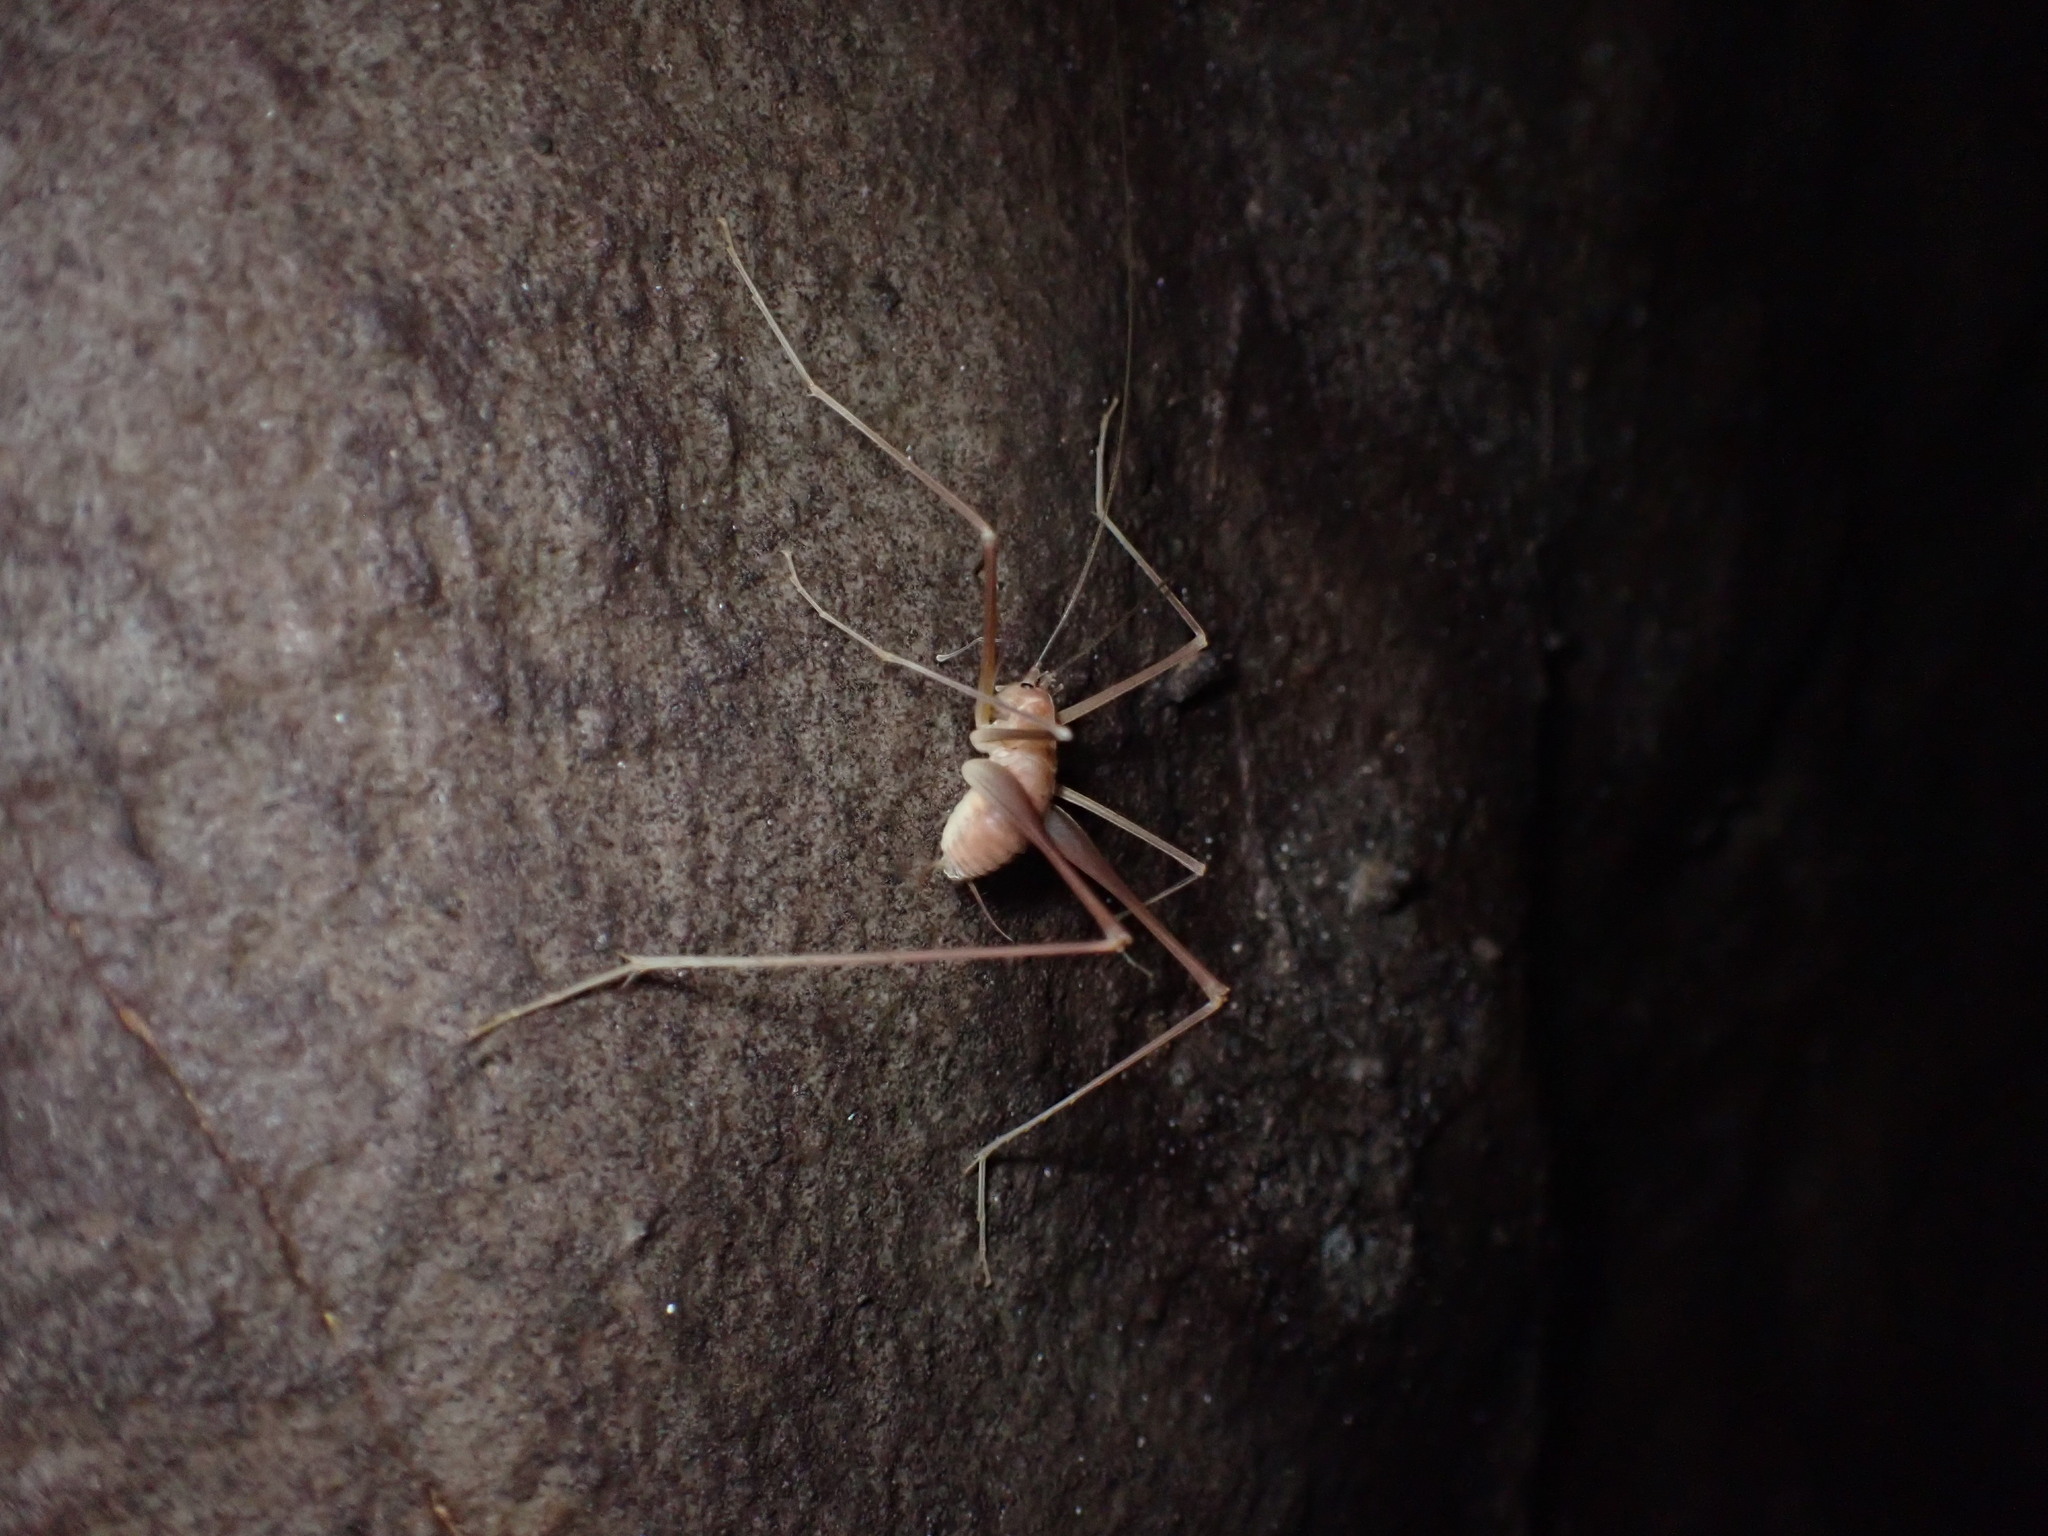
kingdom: Animalia
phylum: Arthropoda
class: Insecta
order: Orthoptera
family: Rhaphidophoridae
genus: Hadenoecus
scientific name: Hadenoecus jonesi
